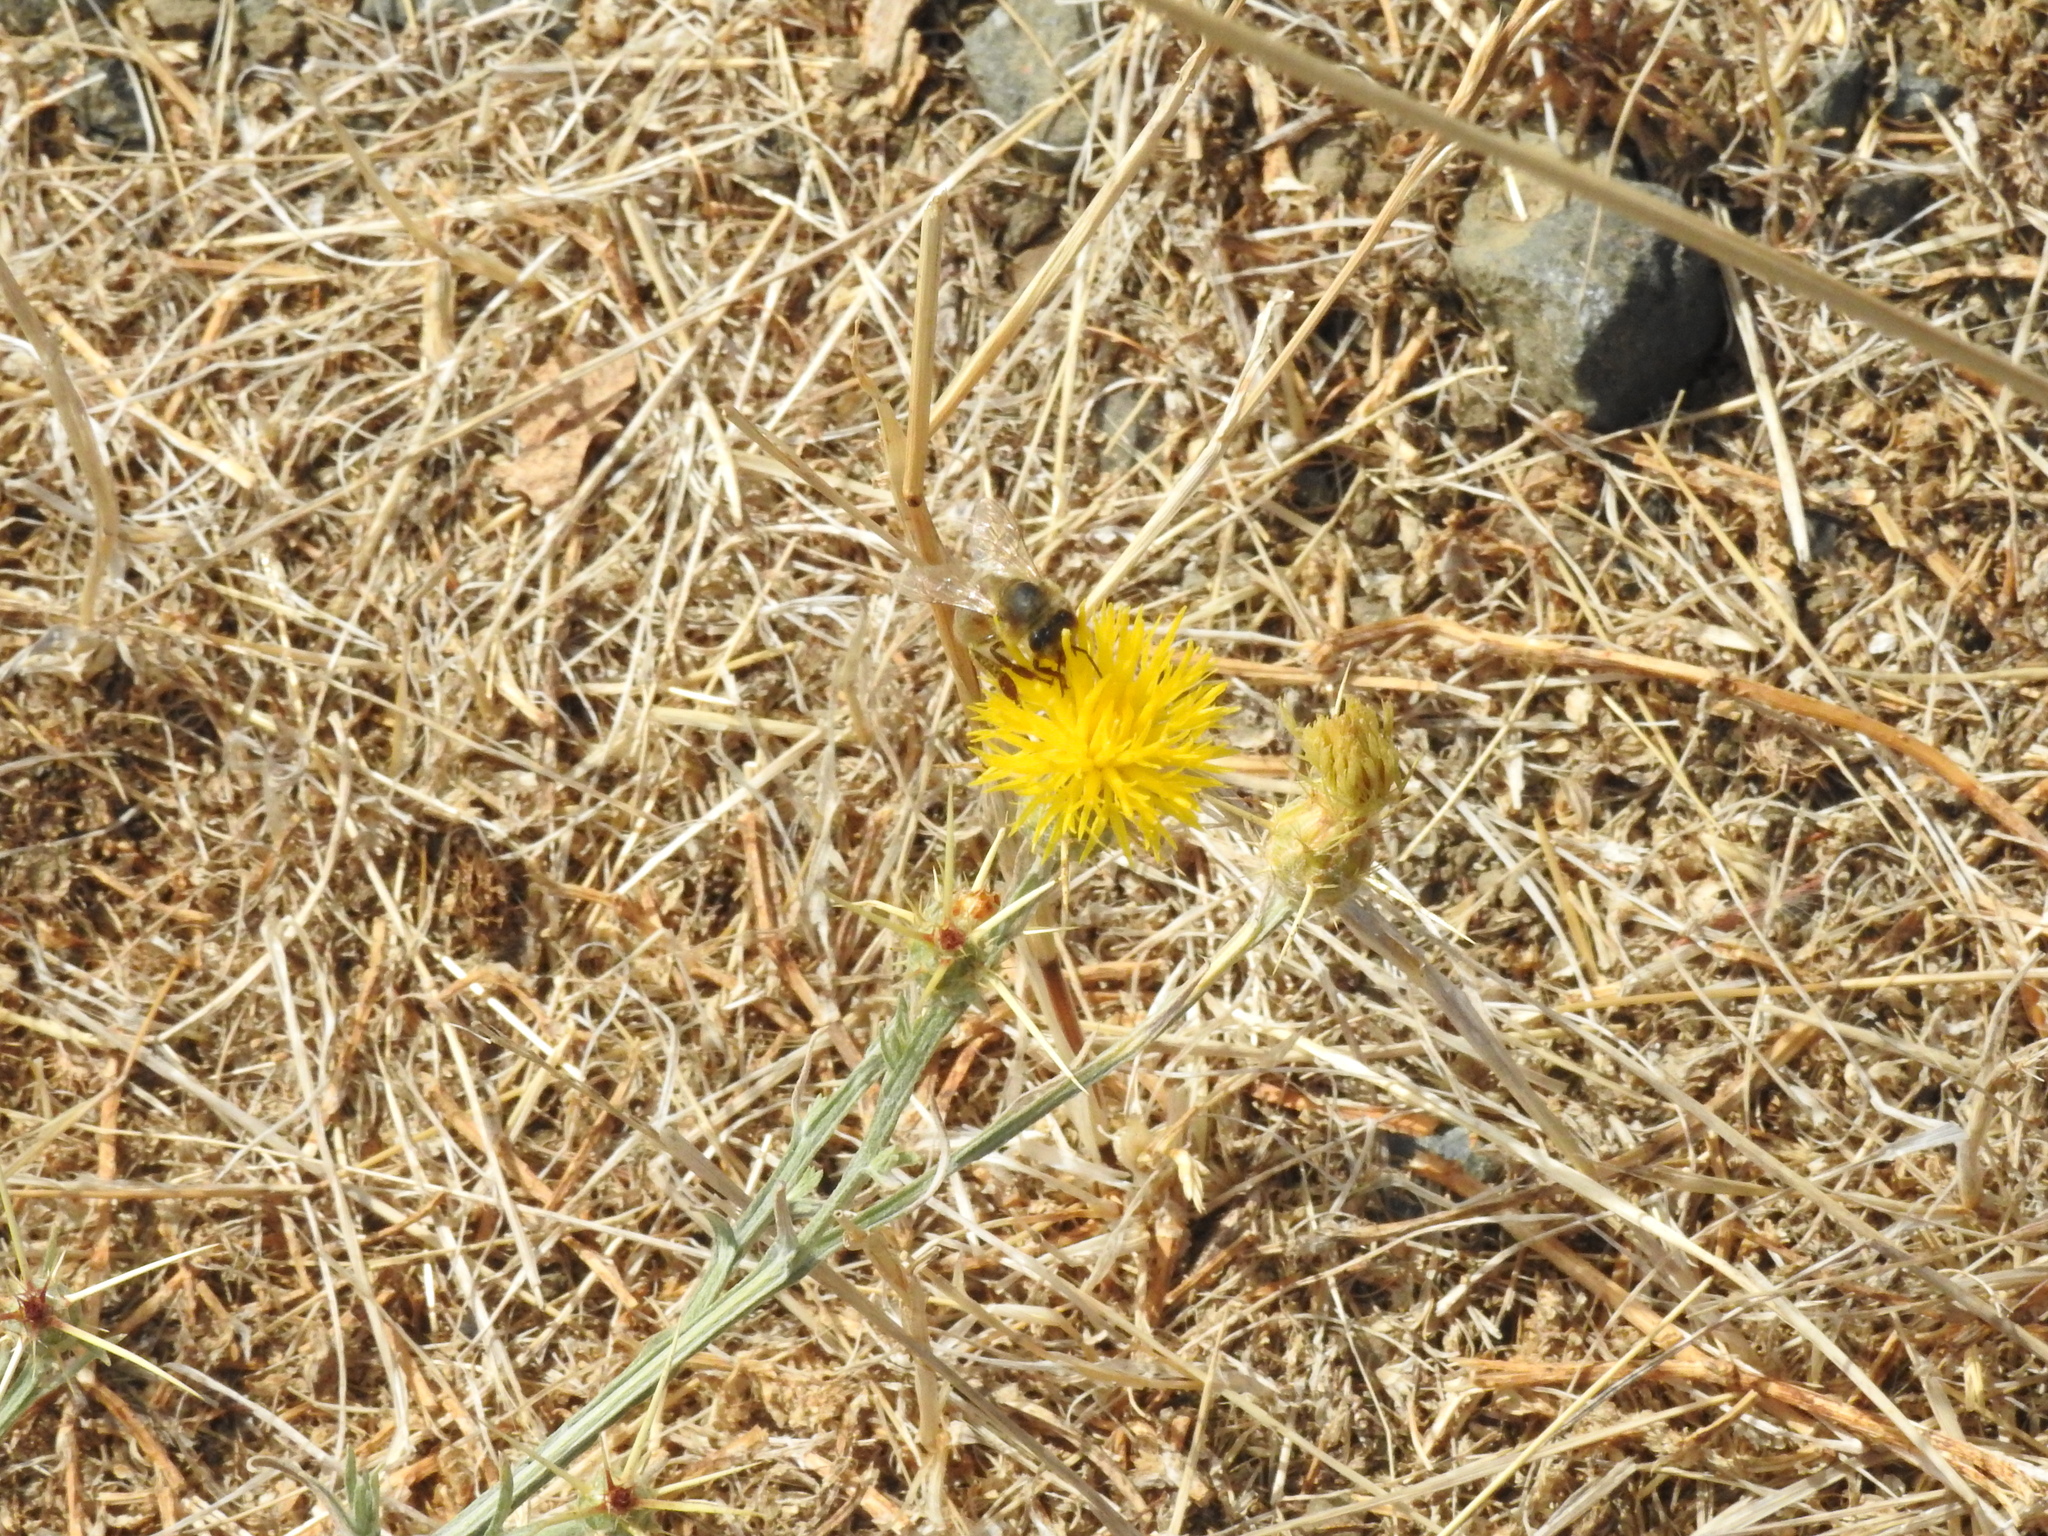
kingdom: Animalia
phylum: Arthropoda
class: Insecta
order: Hymenoptera
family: Apidae
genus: Apis
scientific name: Apis mellifera
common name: Honey bee
